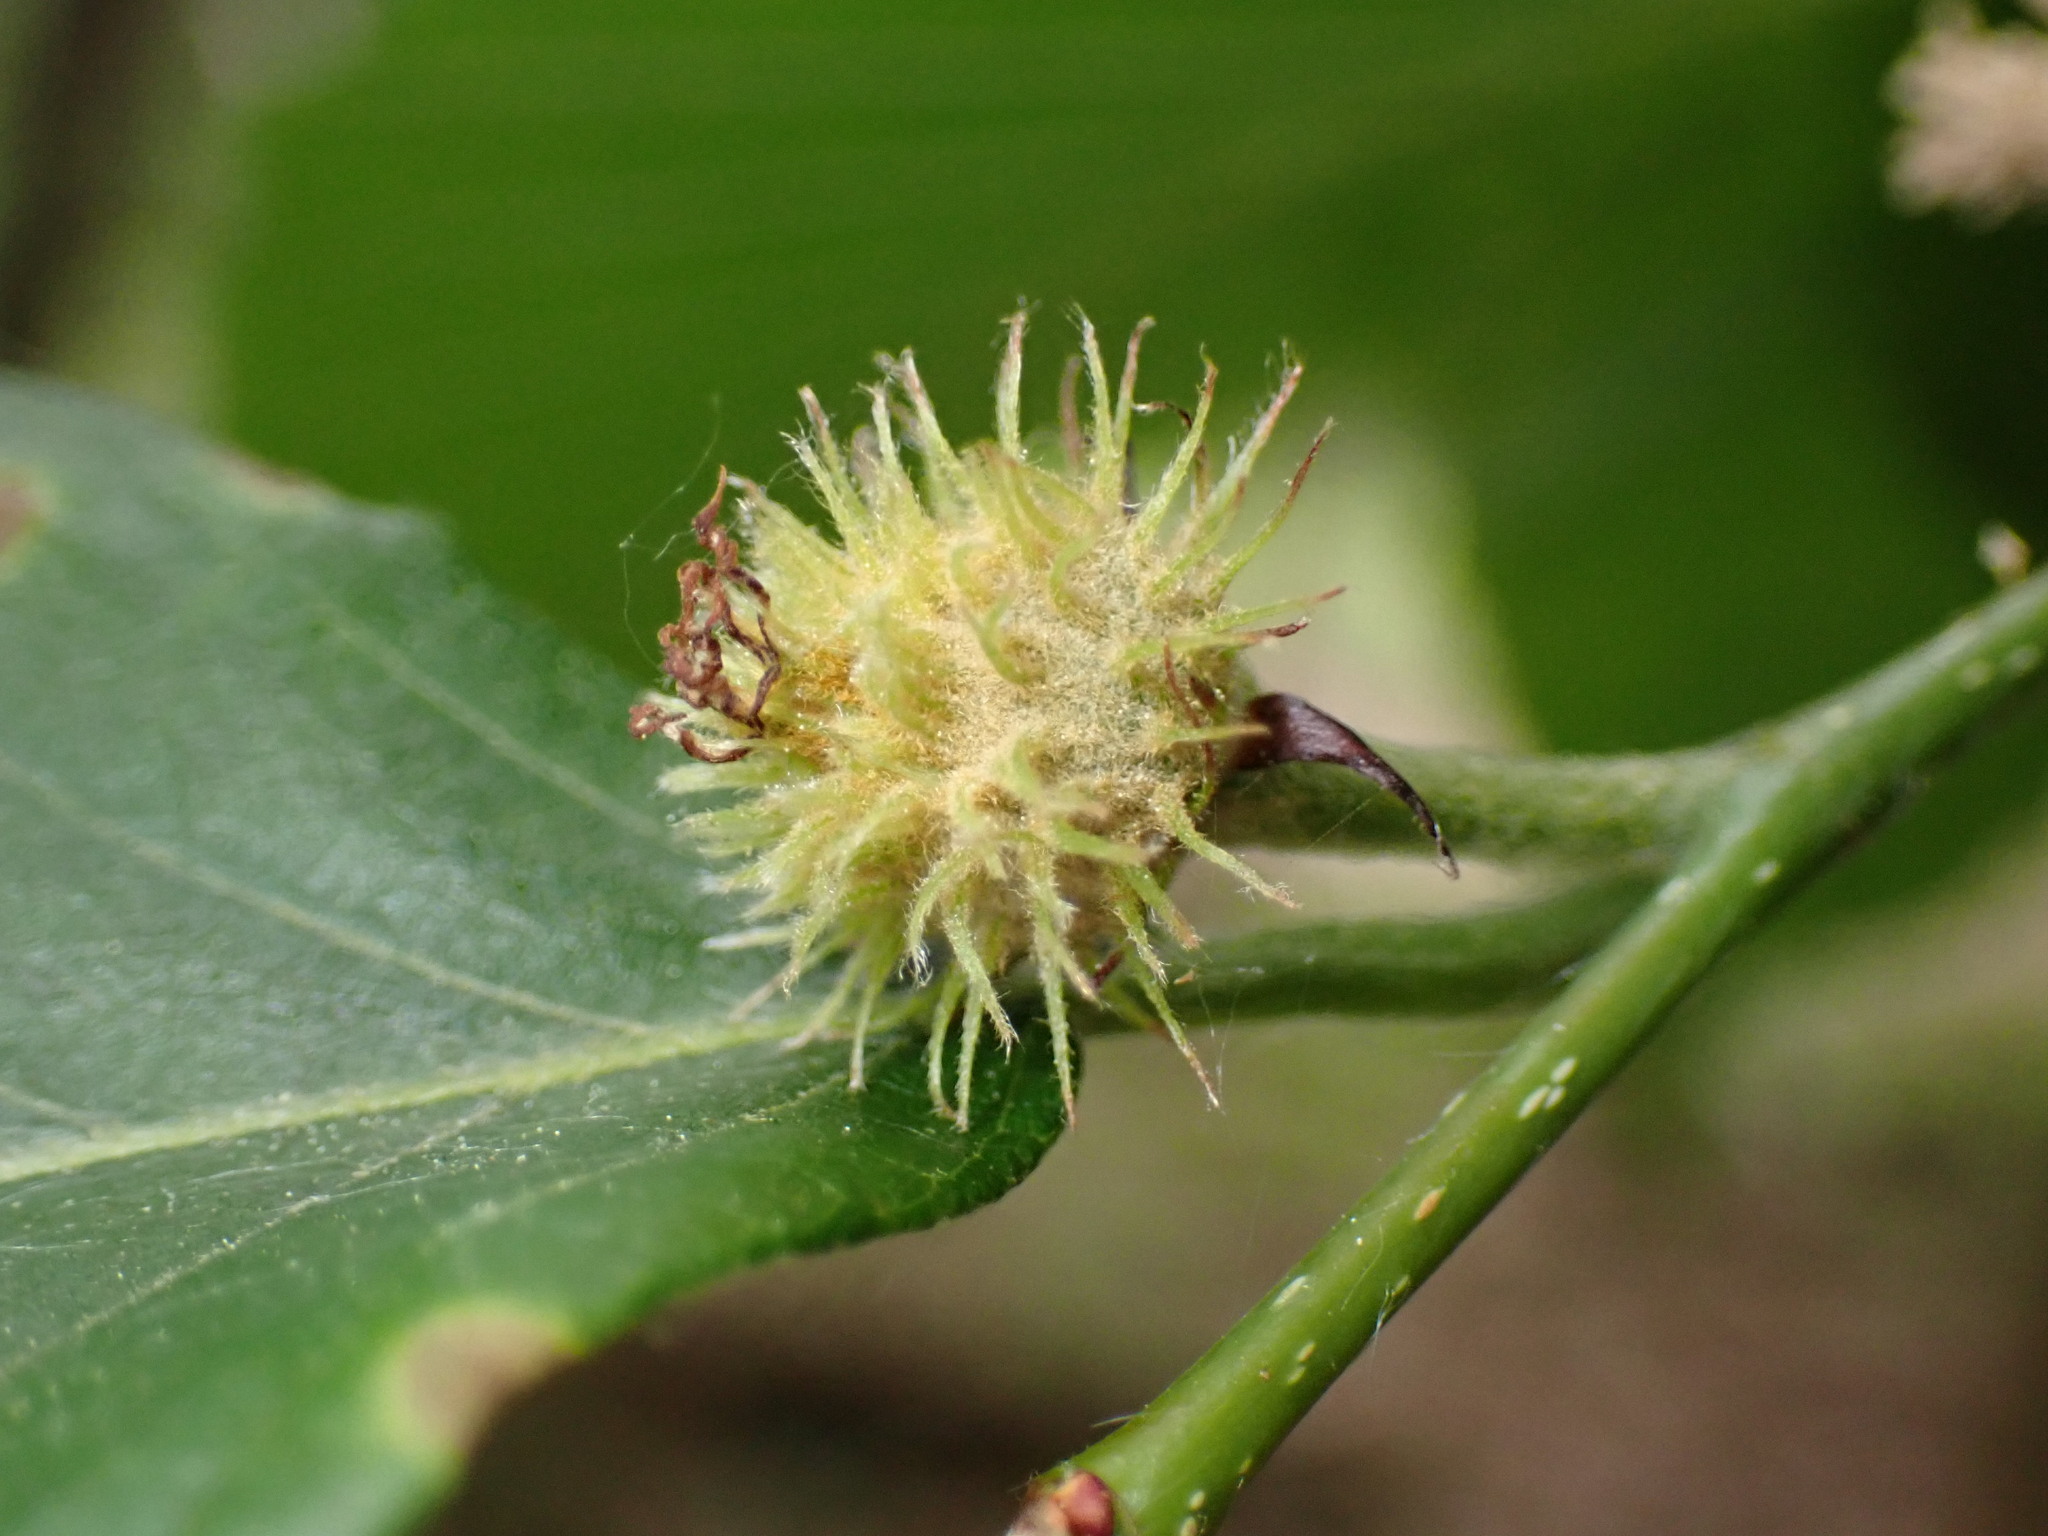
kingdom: Plantae
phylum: Tracheophyta
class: Magnoliopsida
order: Fagales
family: Fagaceae
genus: Fagus
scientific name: Fagus grandifolia
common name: American beech
